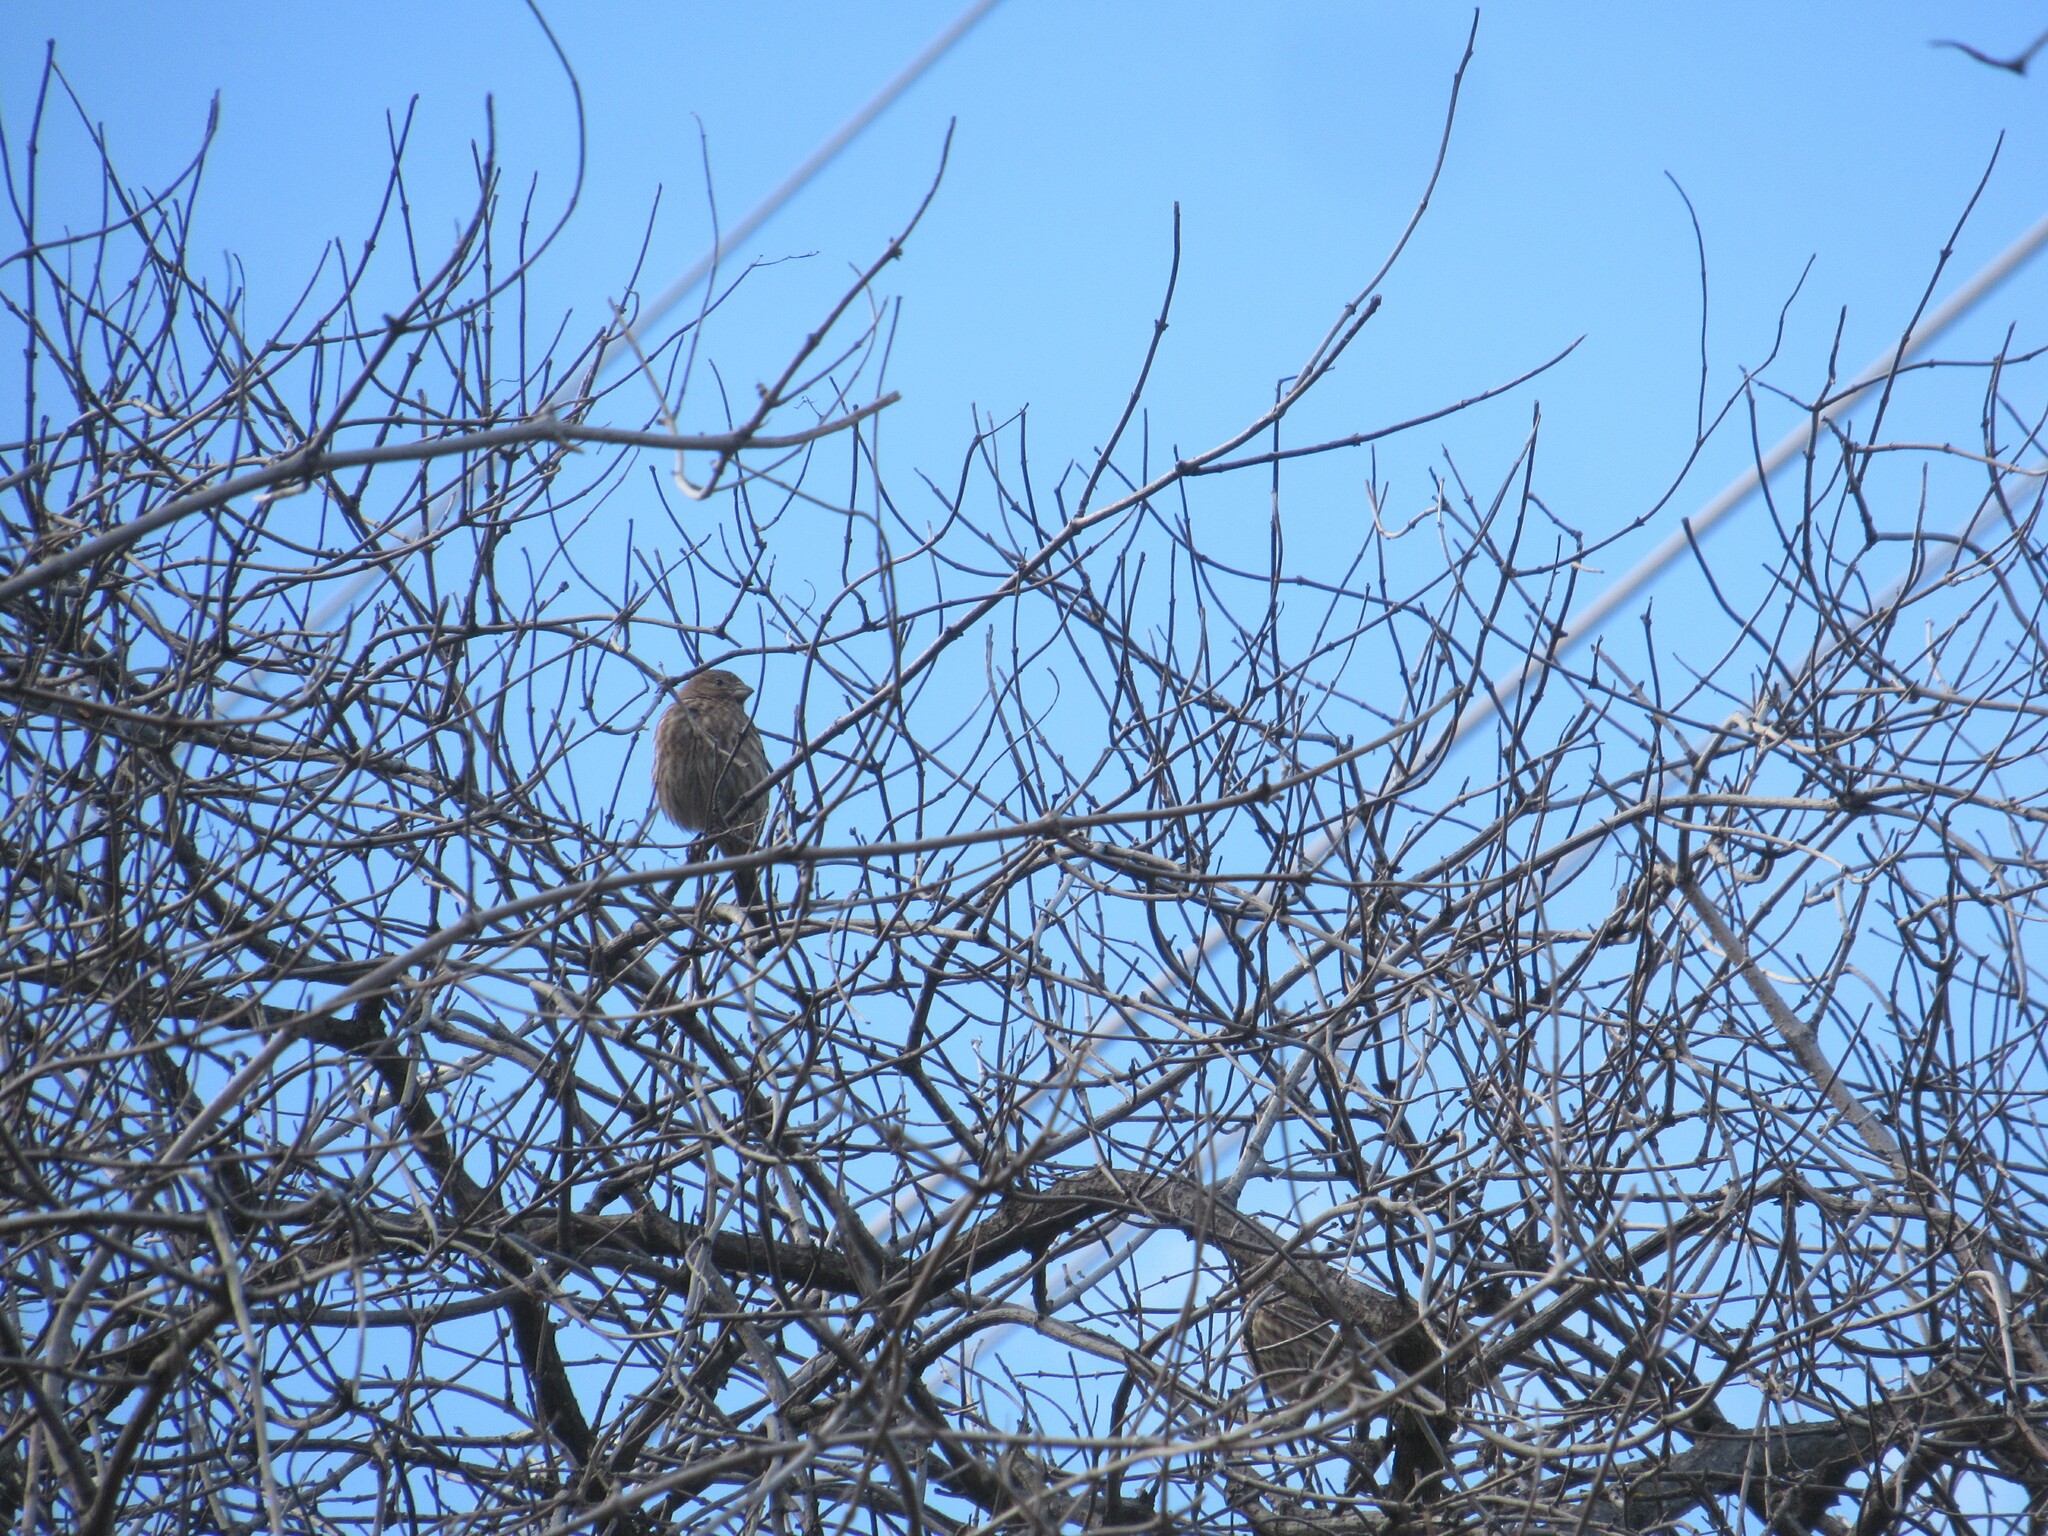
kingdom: Animalia
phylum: Chordata
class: Aves
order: Passeriformes
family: Fringillidae
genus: Haemorhous
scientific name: Haemorhous mexicanus
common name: House finch
